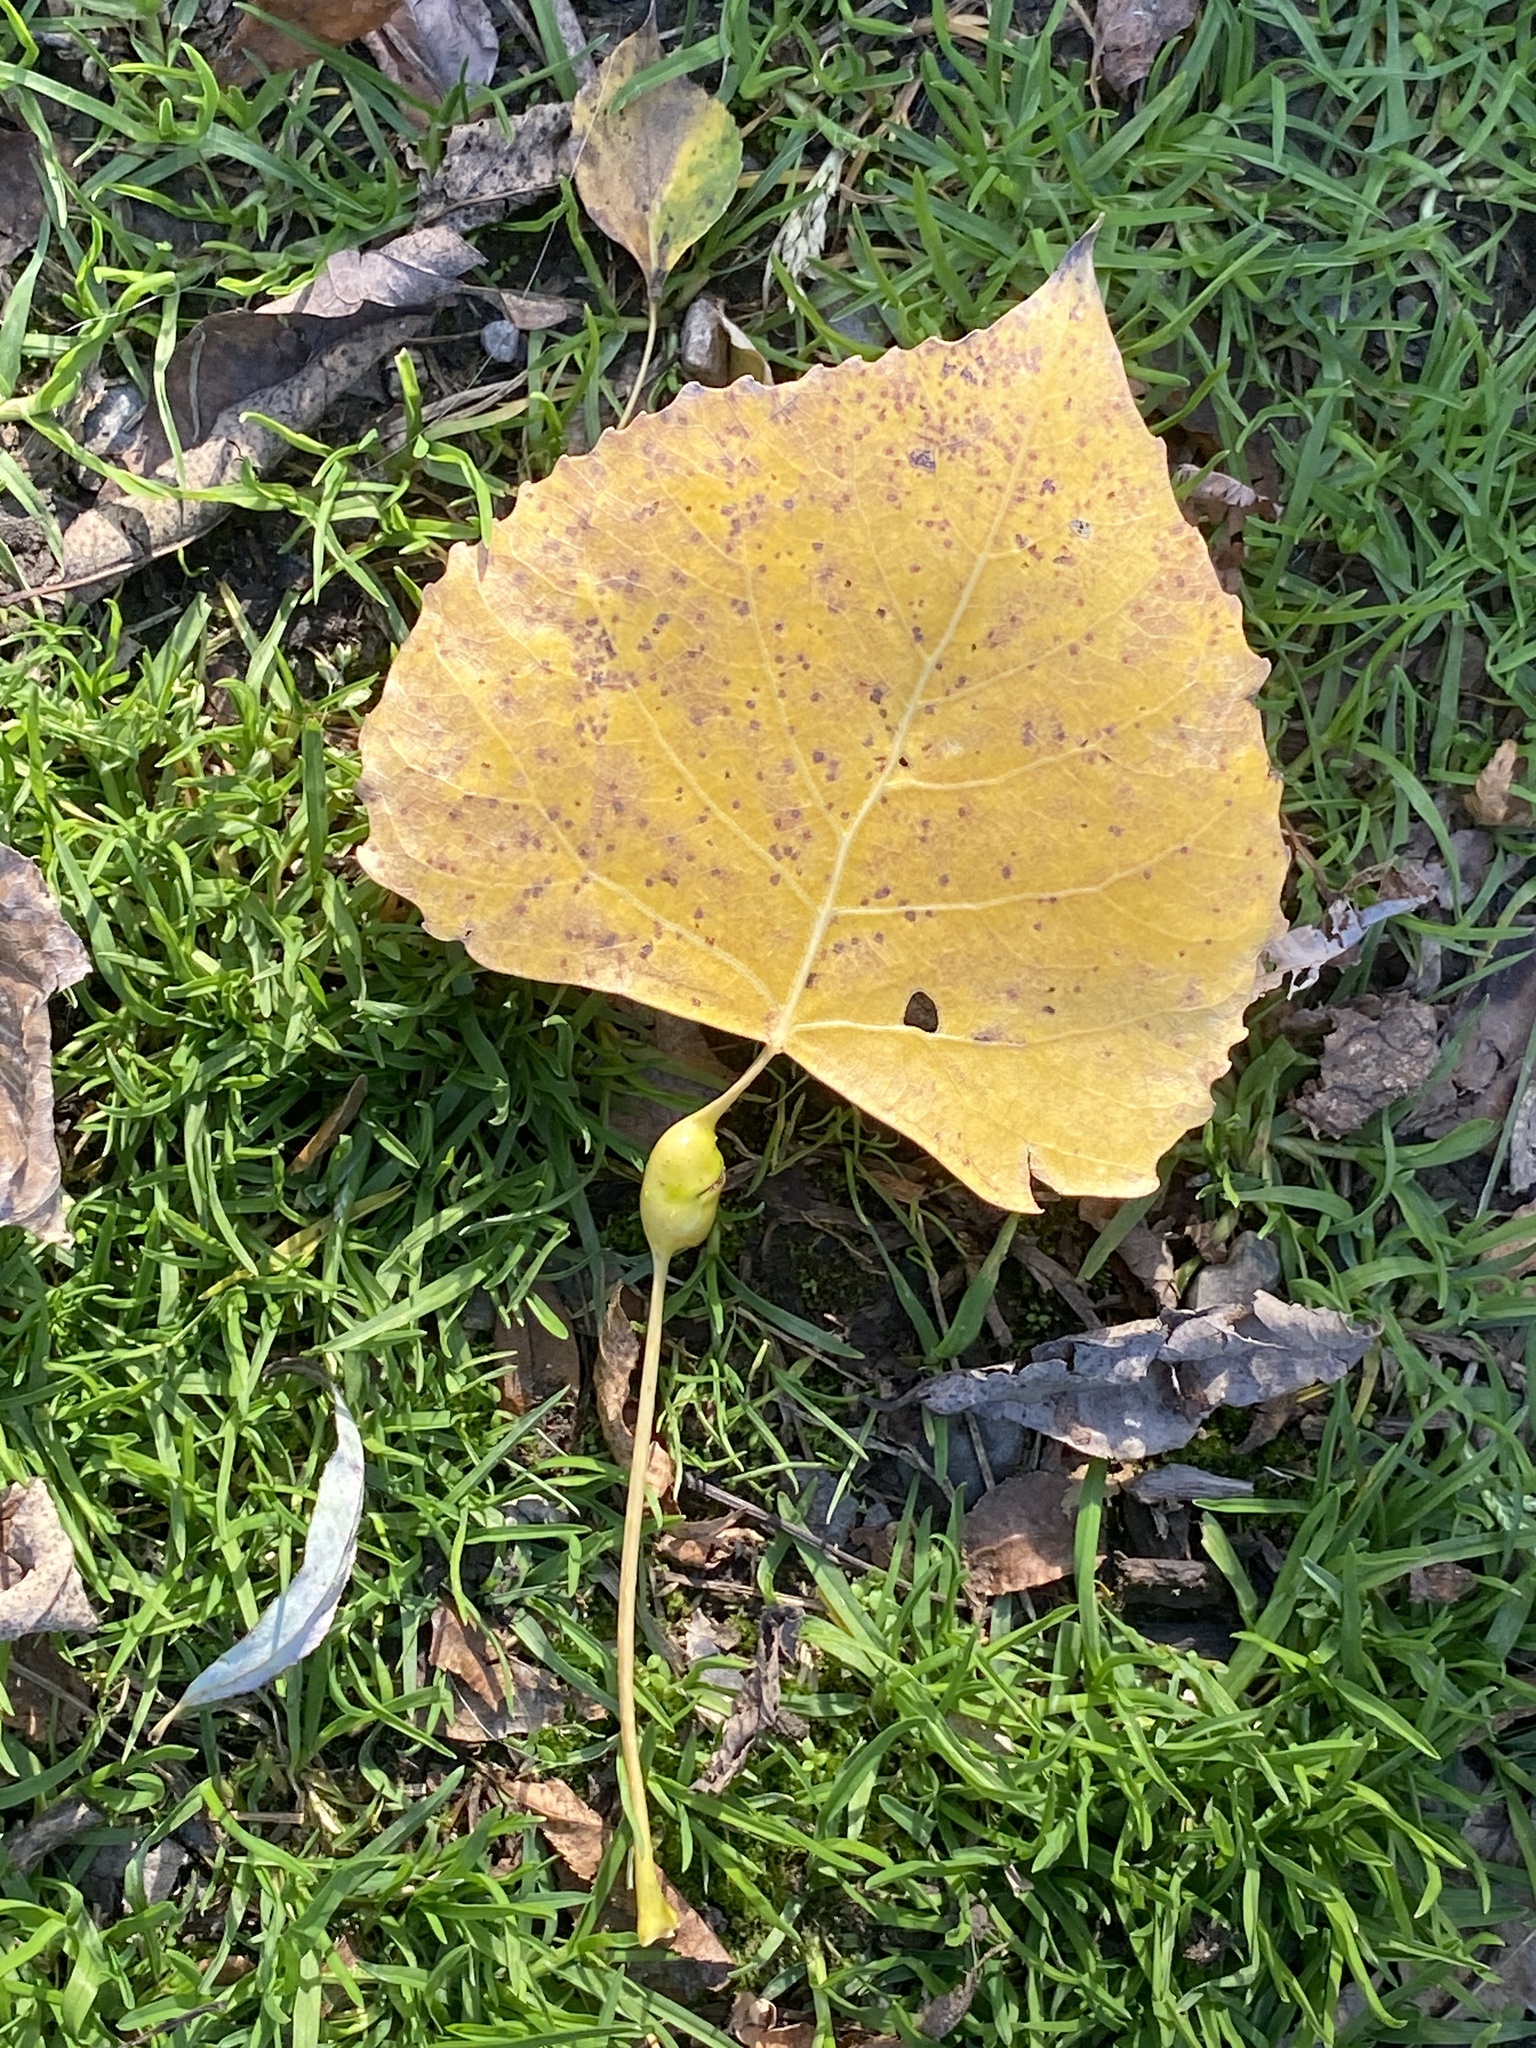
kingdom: Animalia
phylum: Arthropoda
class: Insecta
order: Hemiptera
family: Aphididae
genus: Pemphigus
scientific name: Pemphigus populitransversus
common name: Poplar petiolegall aphid
